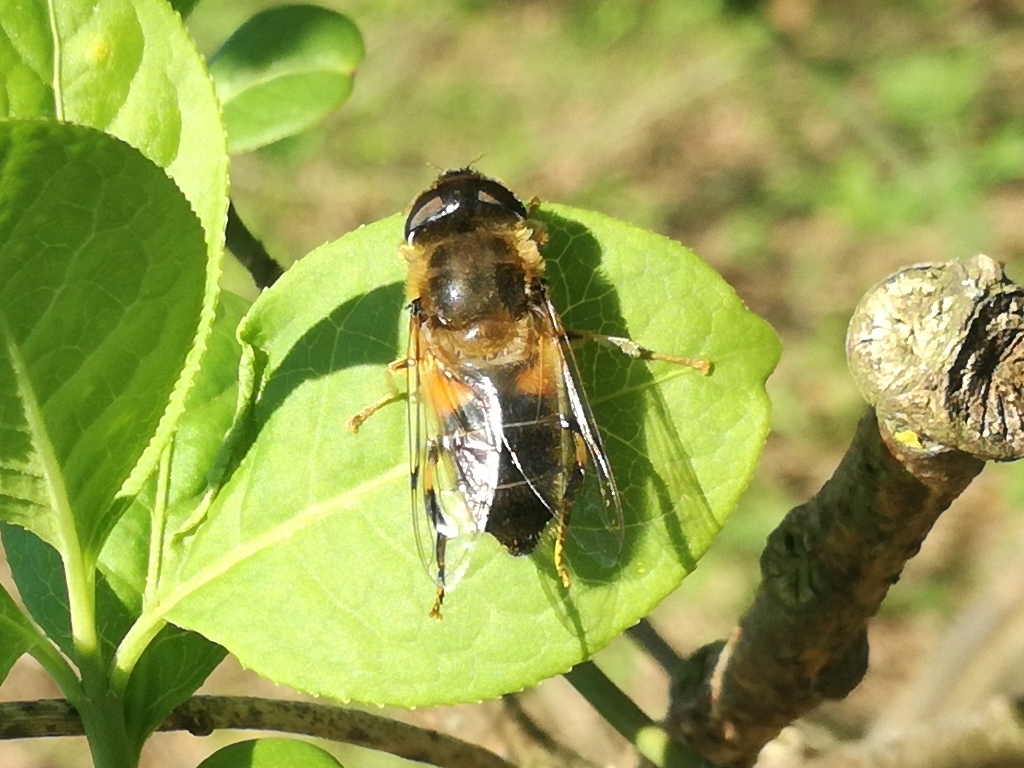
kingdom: Animalia
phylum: Arthropoda
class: Insecta
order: Diptera
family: Syrphidae
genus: Eristalis
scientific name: Eristalis pertinax
